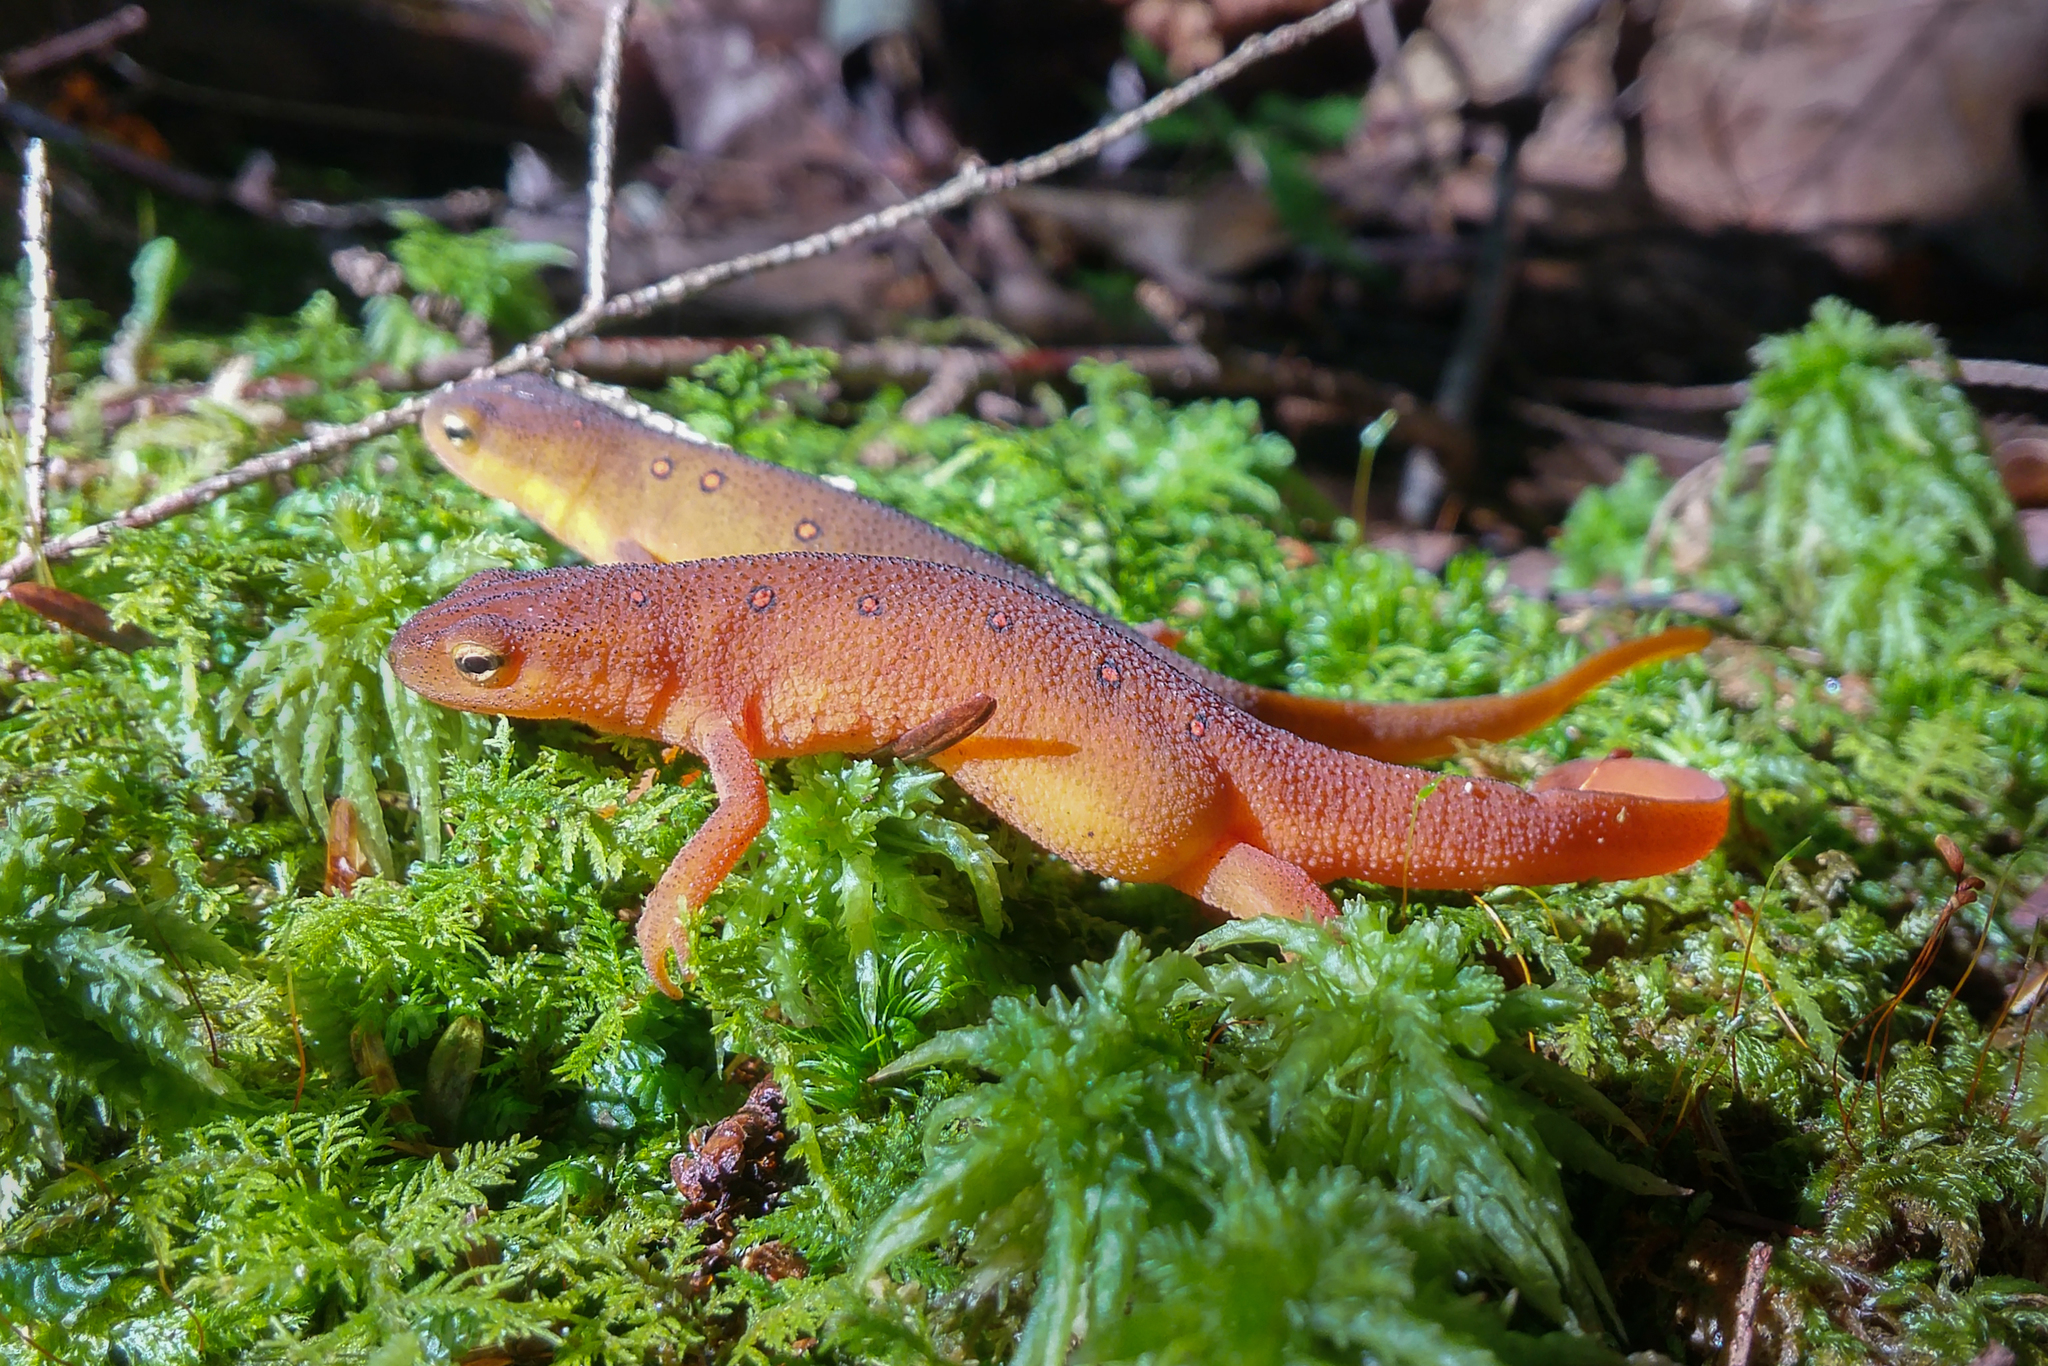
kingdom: Animalia
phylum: Chordata
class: Amphibia
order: Caudata
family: Salamandridae
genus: Notophthalmus
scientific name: Notophthalmus viridescens
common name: Eastern newt
